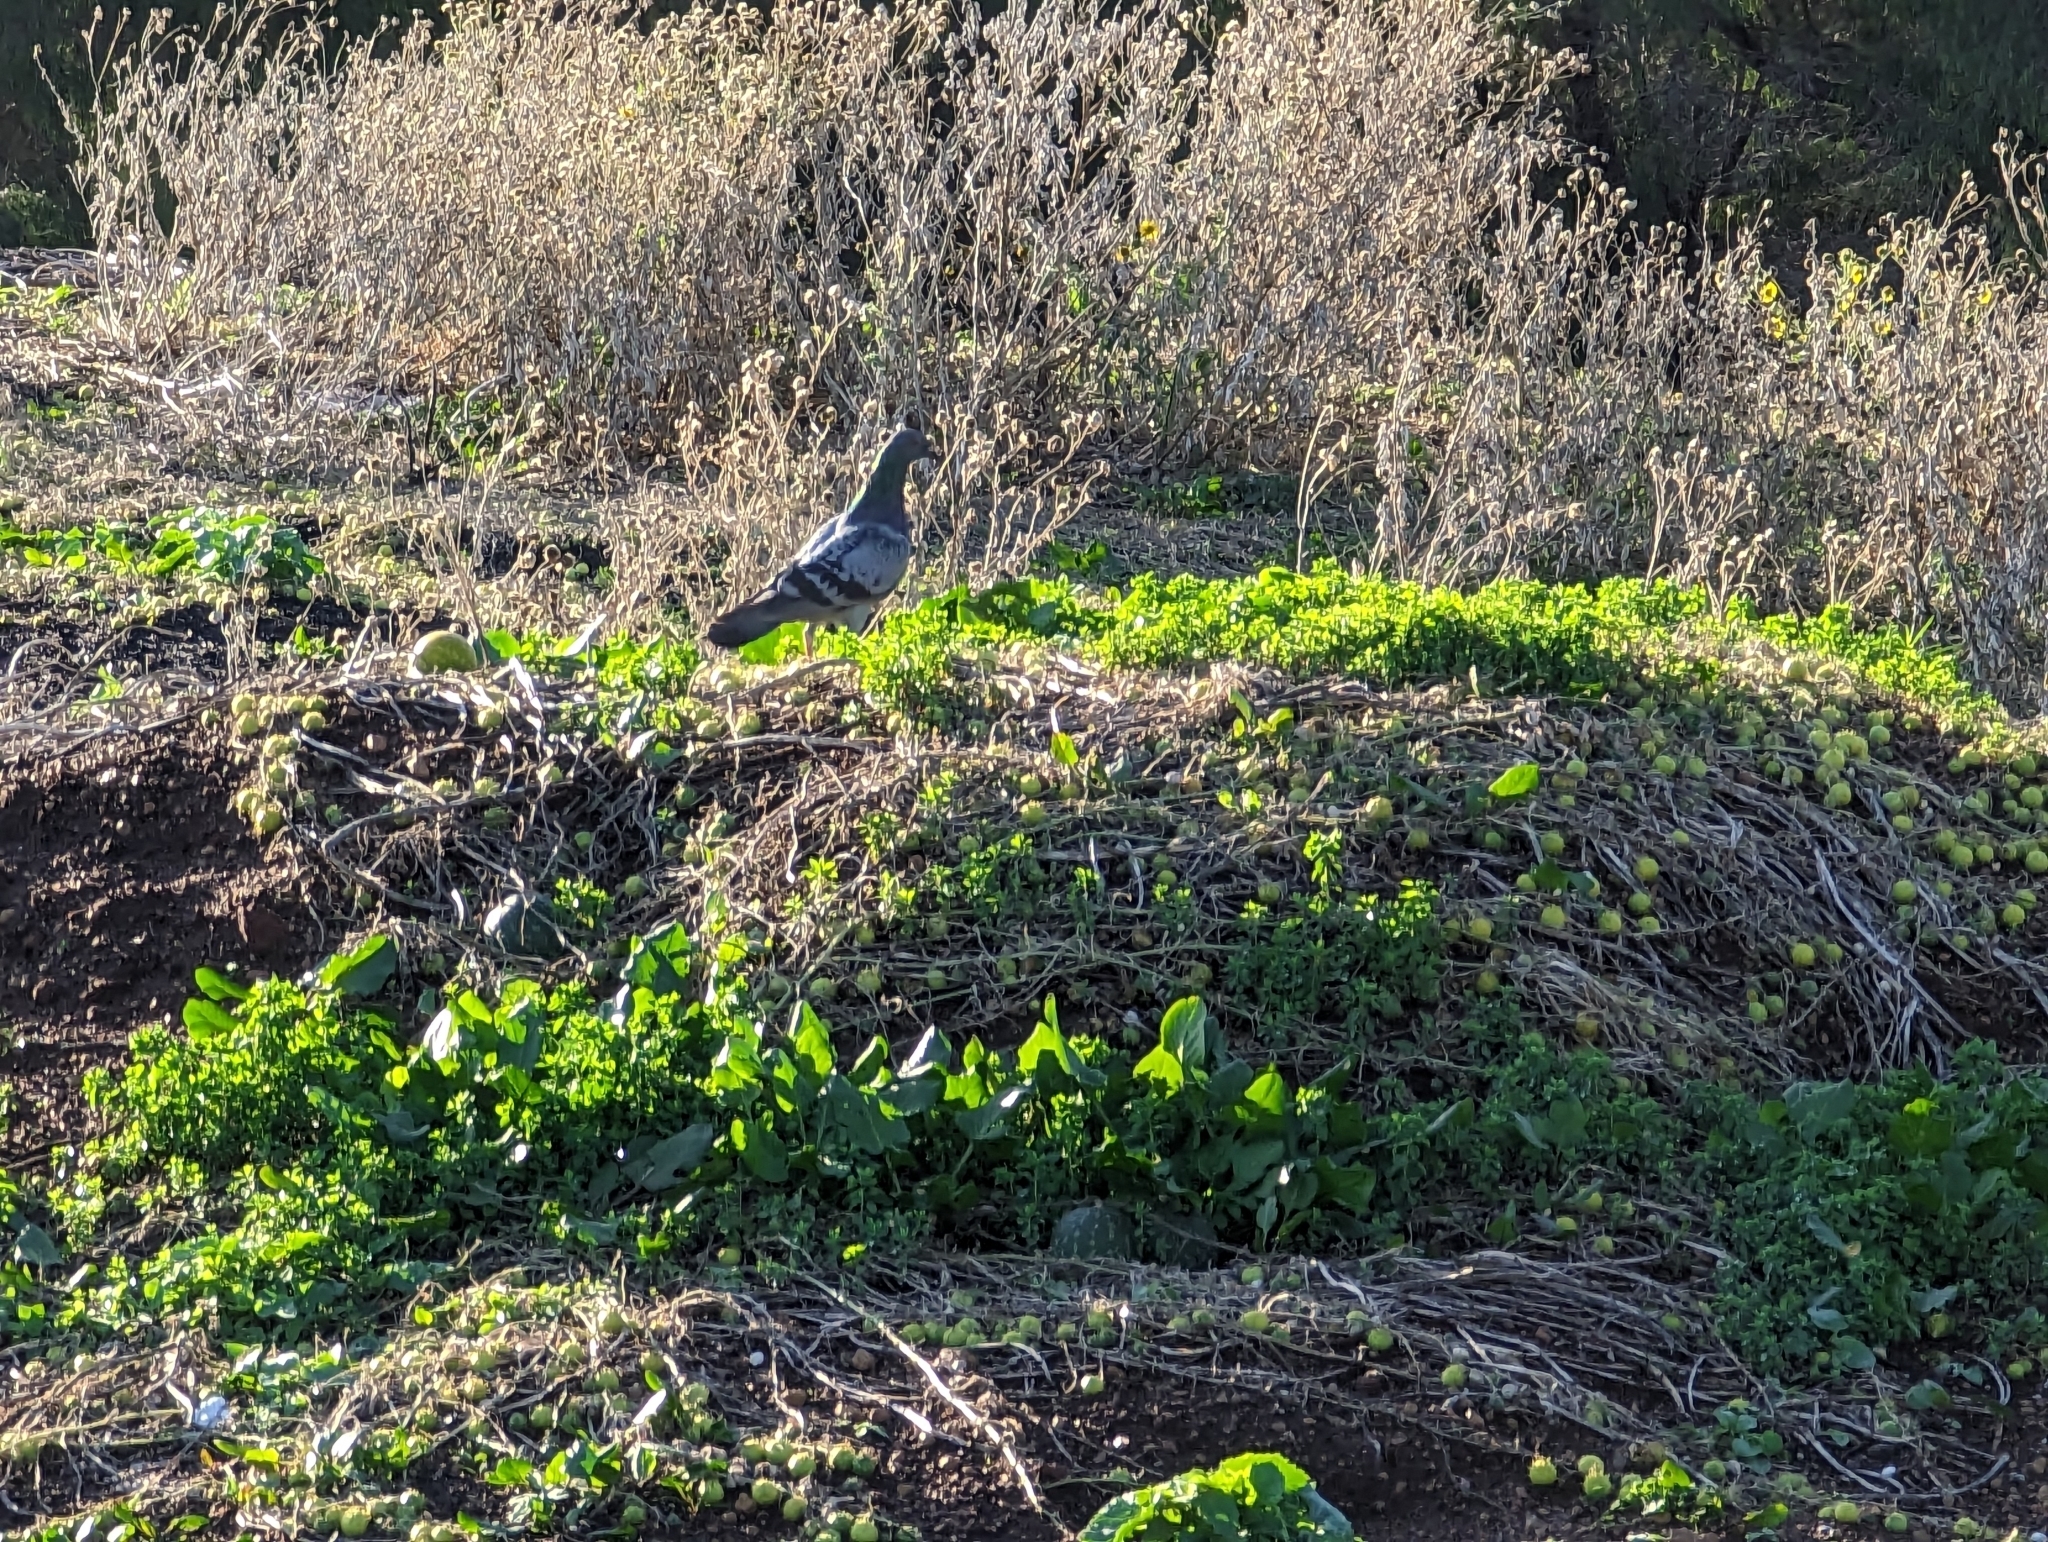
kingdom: Animalia
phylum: Chordata
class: Aves
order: Columbiformes
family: Columbidae
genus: Columba
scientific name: Columba livia
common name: Rock pigeon
